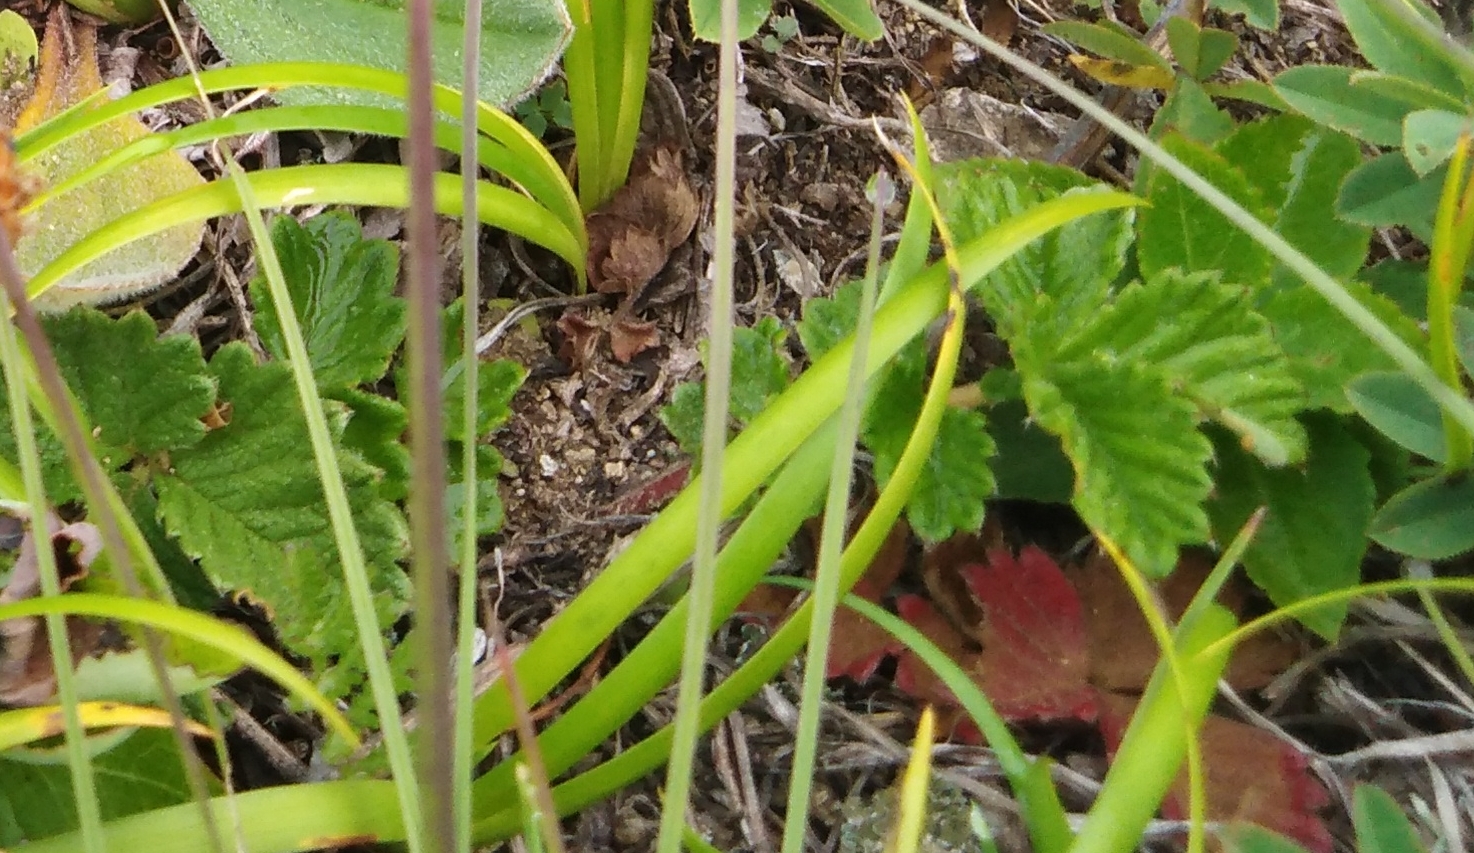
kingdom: Plantae
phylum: Tracheophyta
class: Magnoliopsida
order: Rosales
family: Rosaceae
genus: Potentilla
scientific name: Potentilla ancistrifolia
